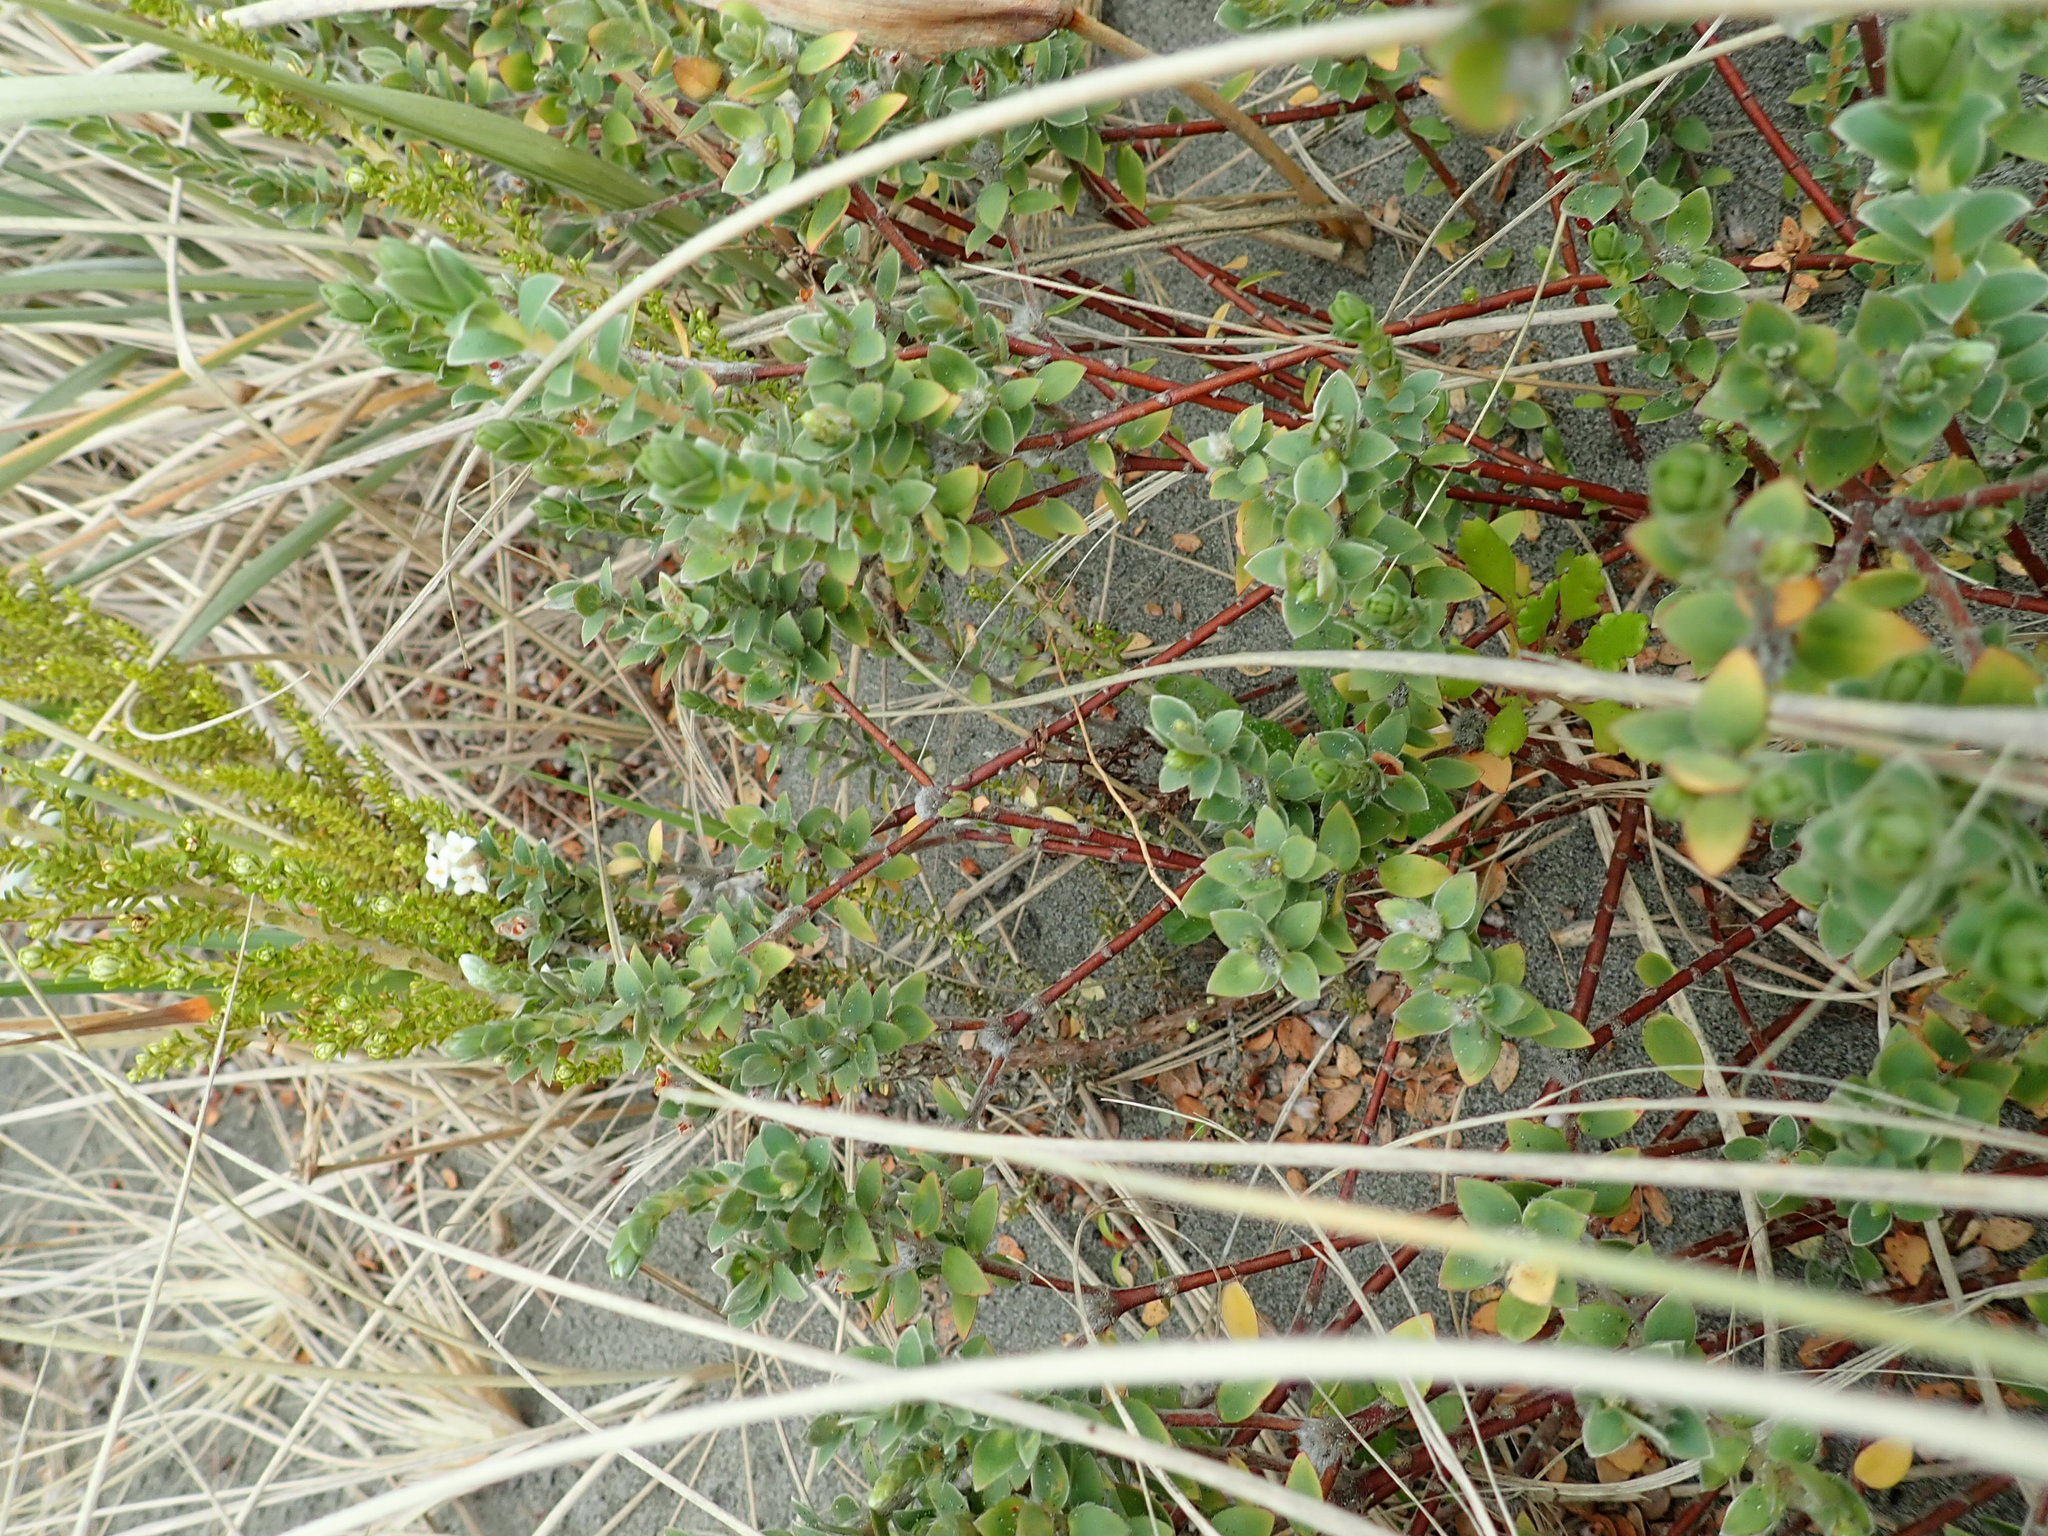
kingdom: Plantae
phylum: Tracheophyta
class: Magnoliopsida
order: Malvales
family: Thymelaeaceae
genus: Pimelea
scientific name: Pimelea villosa
